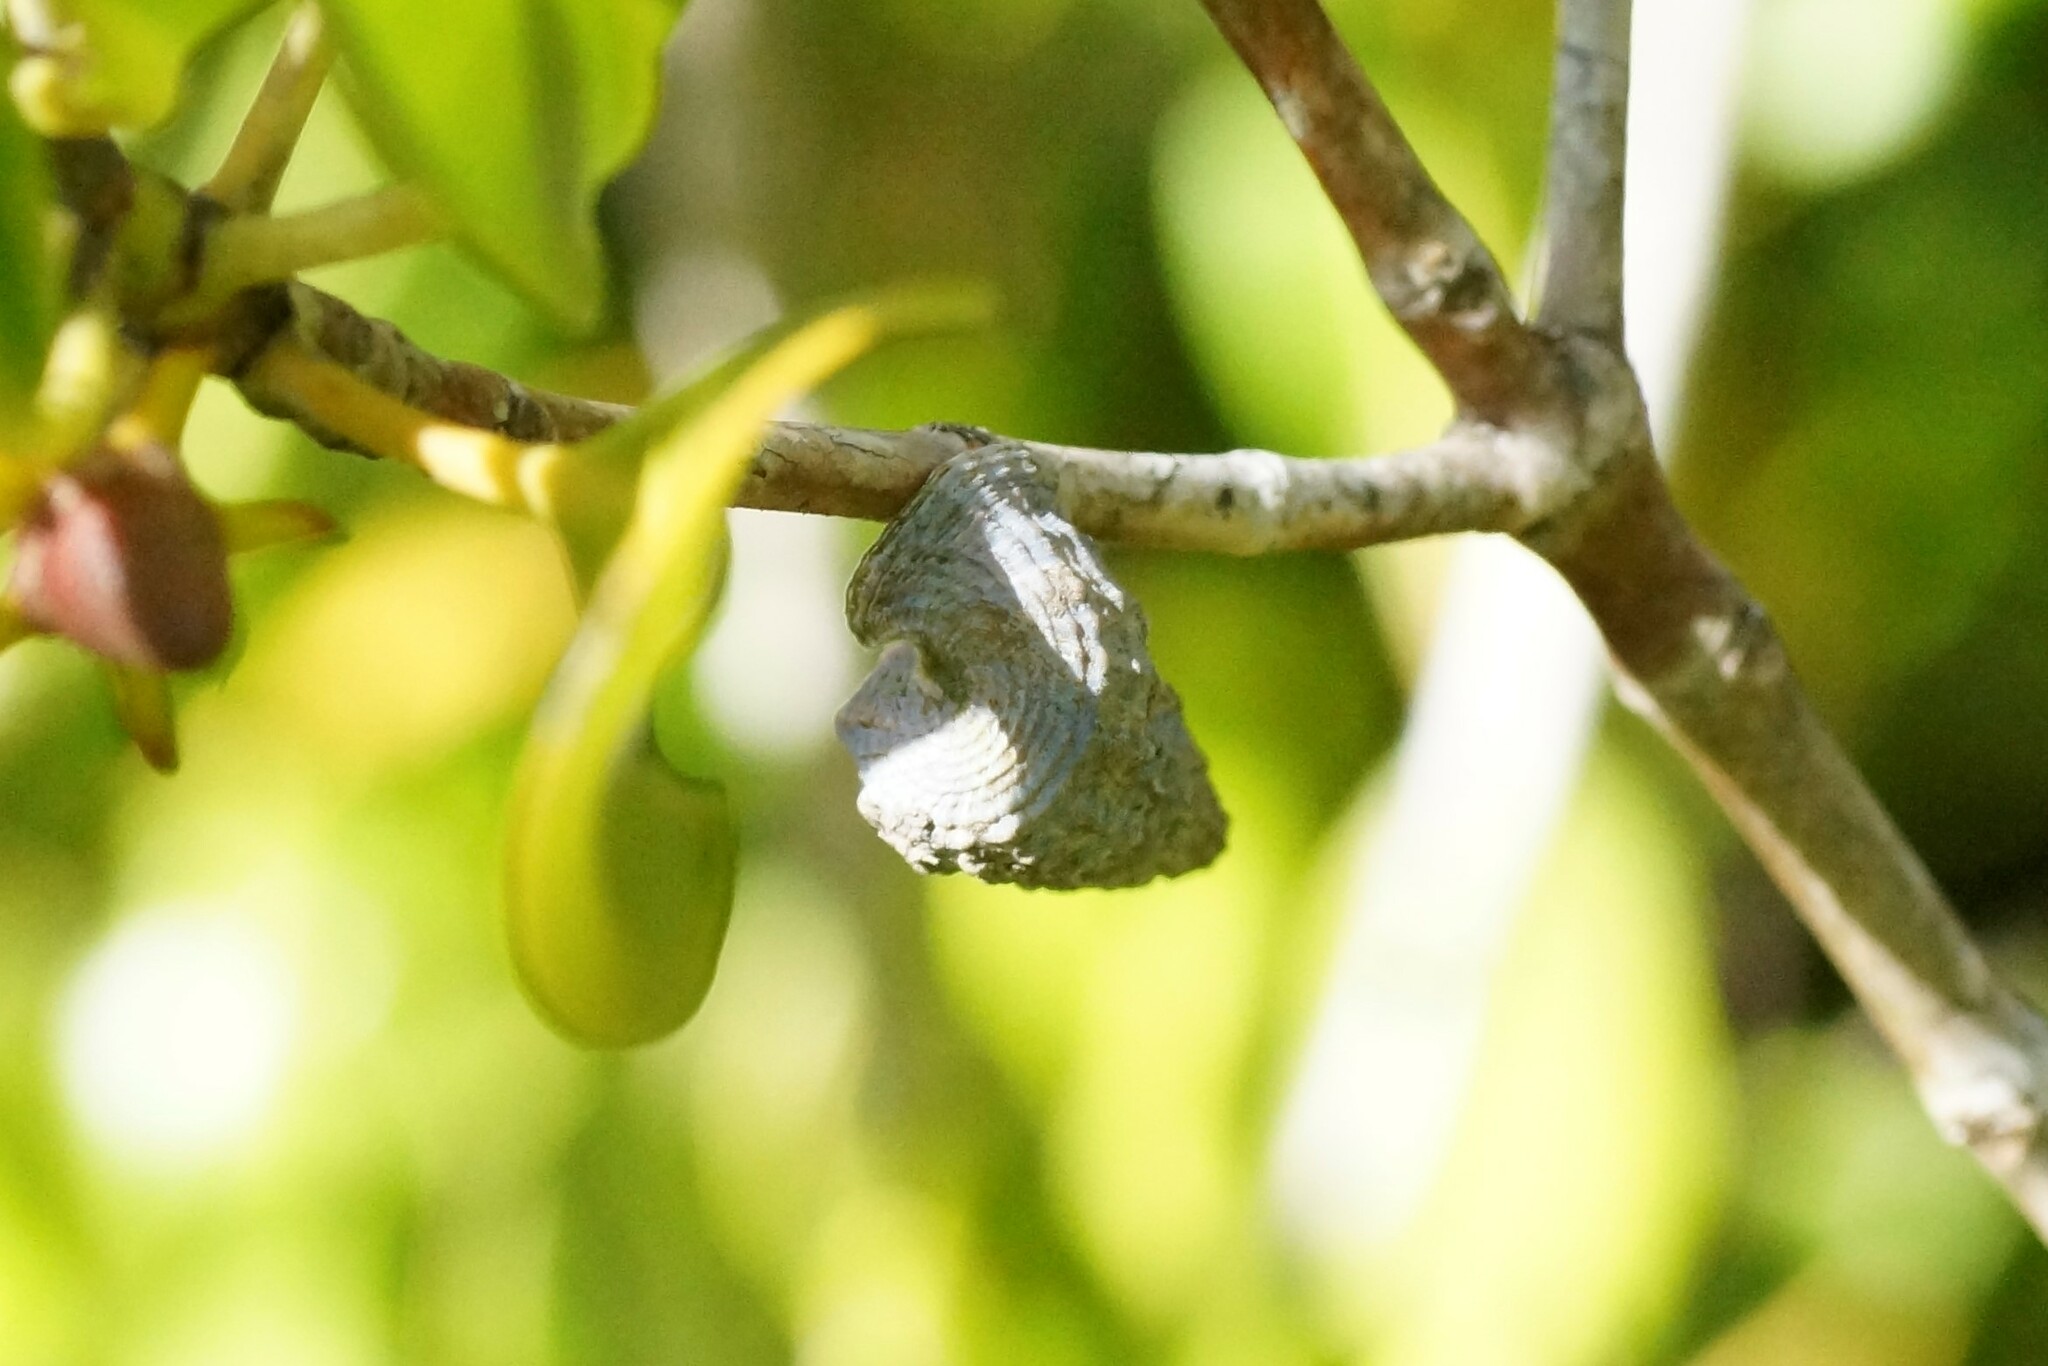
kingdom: Animalia
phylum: Mollusca
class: Gastropoda
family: Potamididae
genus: Cerithidea
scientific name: Cerithidea anticipata
